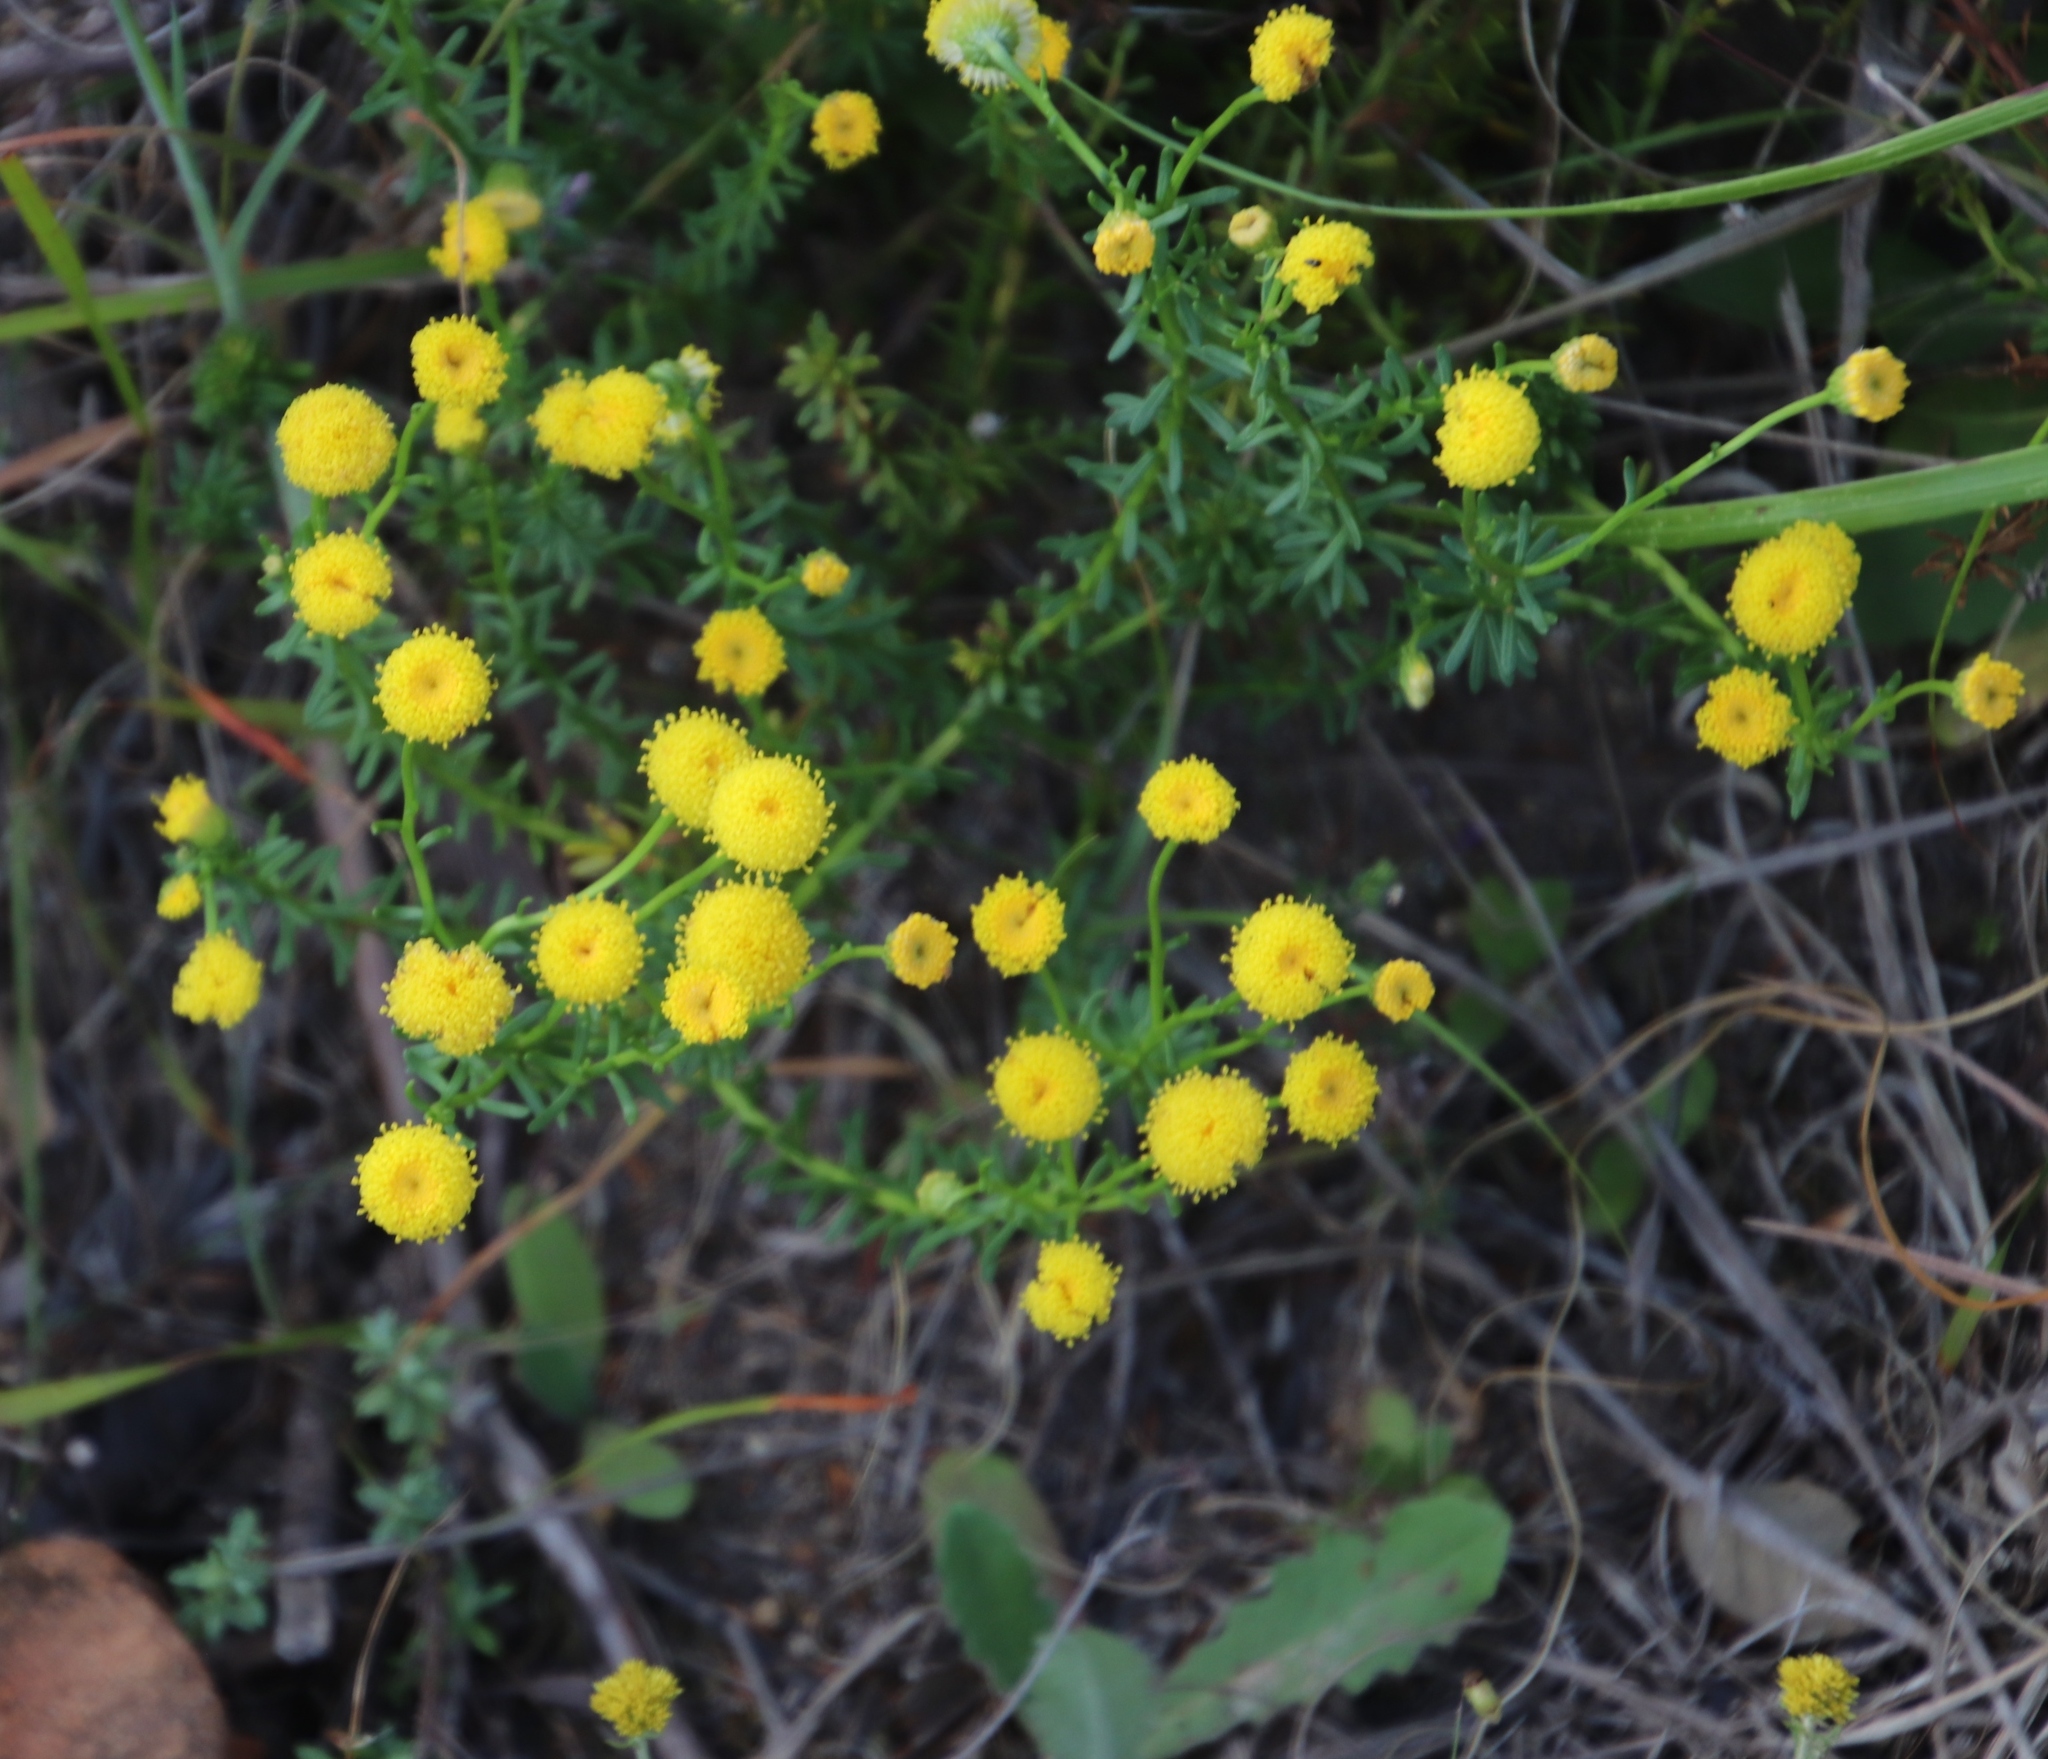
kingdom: Plantae
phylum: Tracheophyta
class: Magnoliopsida
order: Asterales
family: Asteraceae
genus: Chrysocoma
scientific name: Chrysocoma cernua
